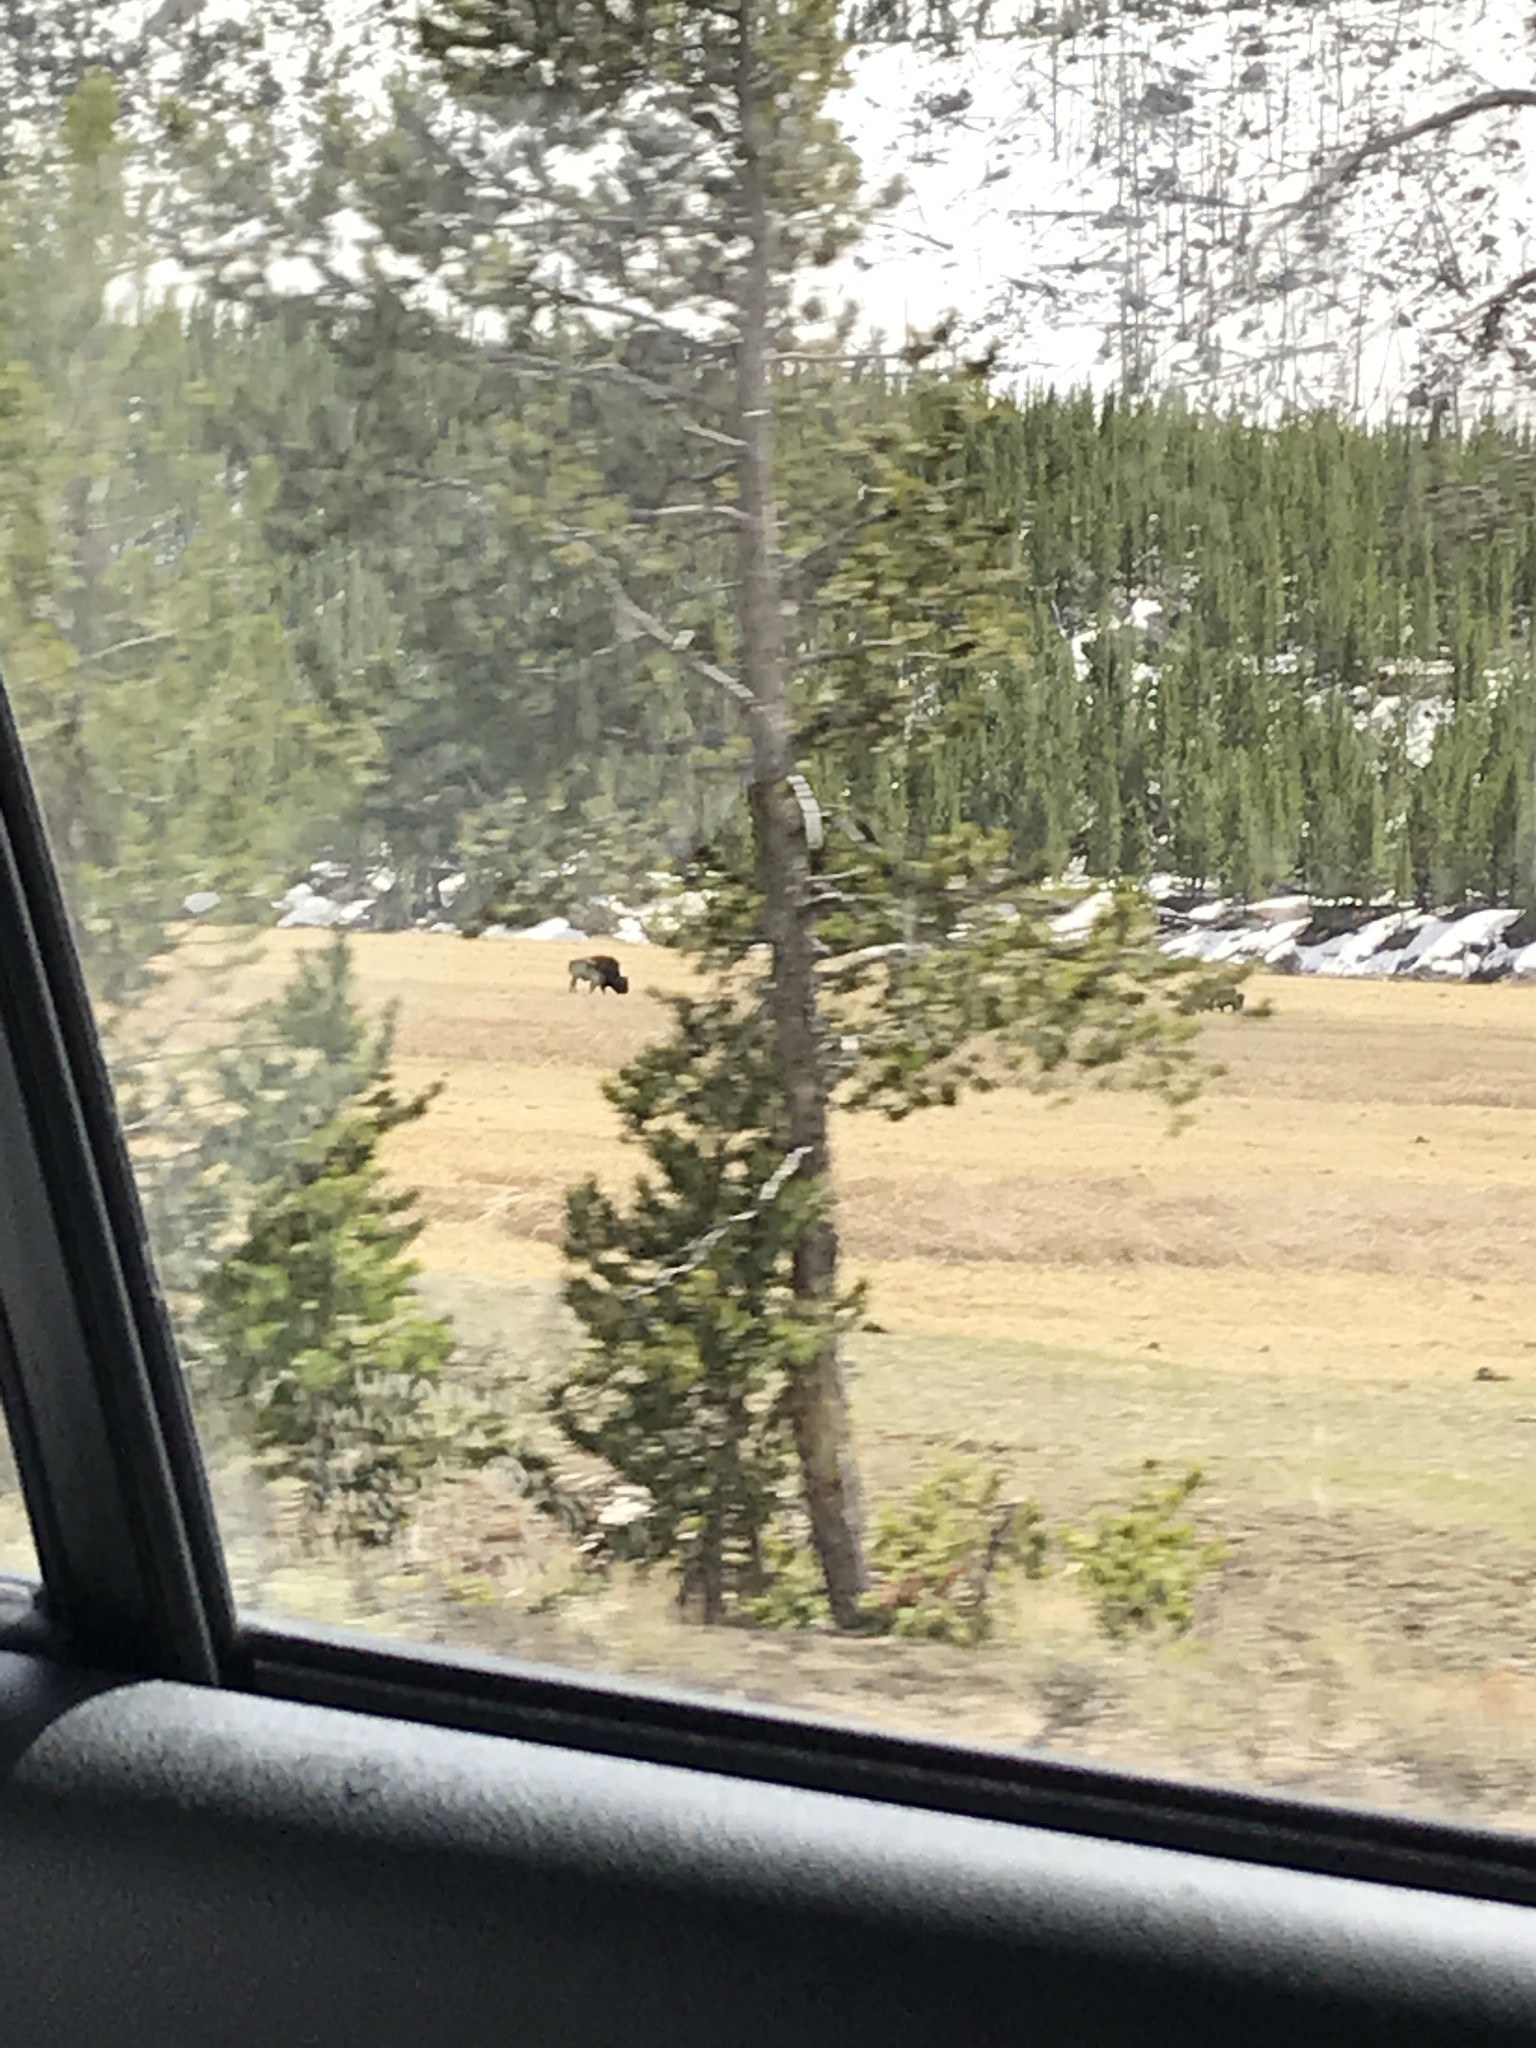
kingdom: Animalia
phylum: Chordata
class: Mammalia
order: Artiodactyla
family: Bovidae
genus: Bison
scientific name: Bison bison
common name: American bison
